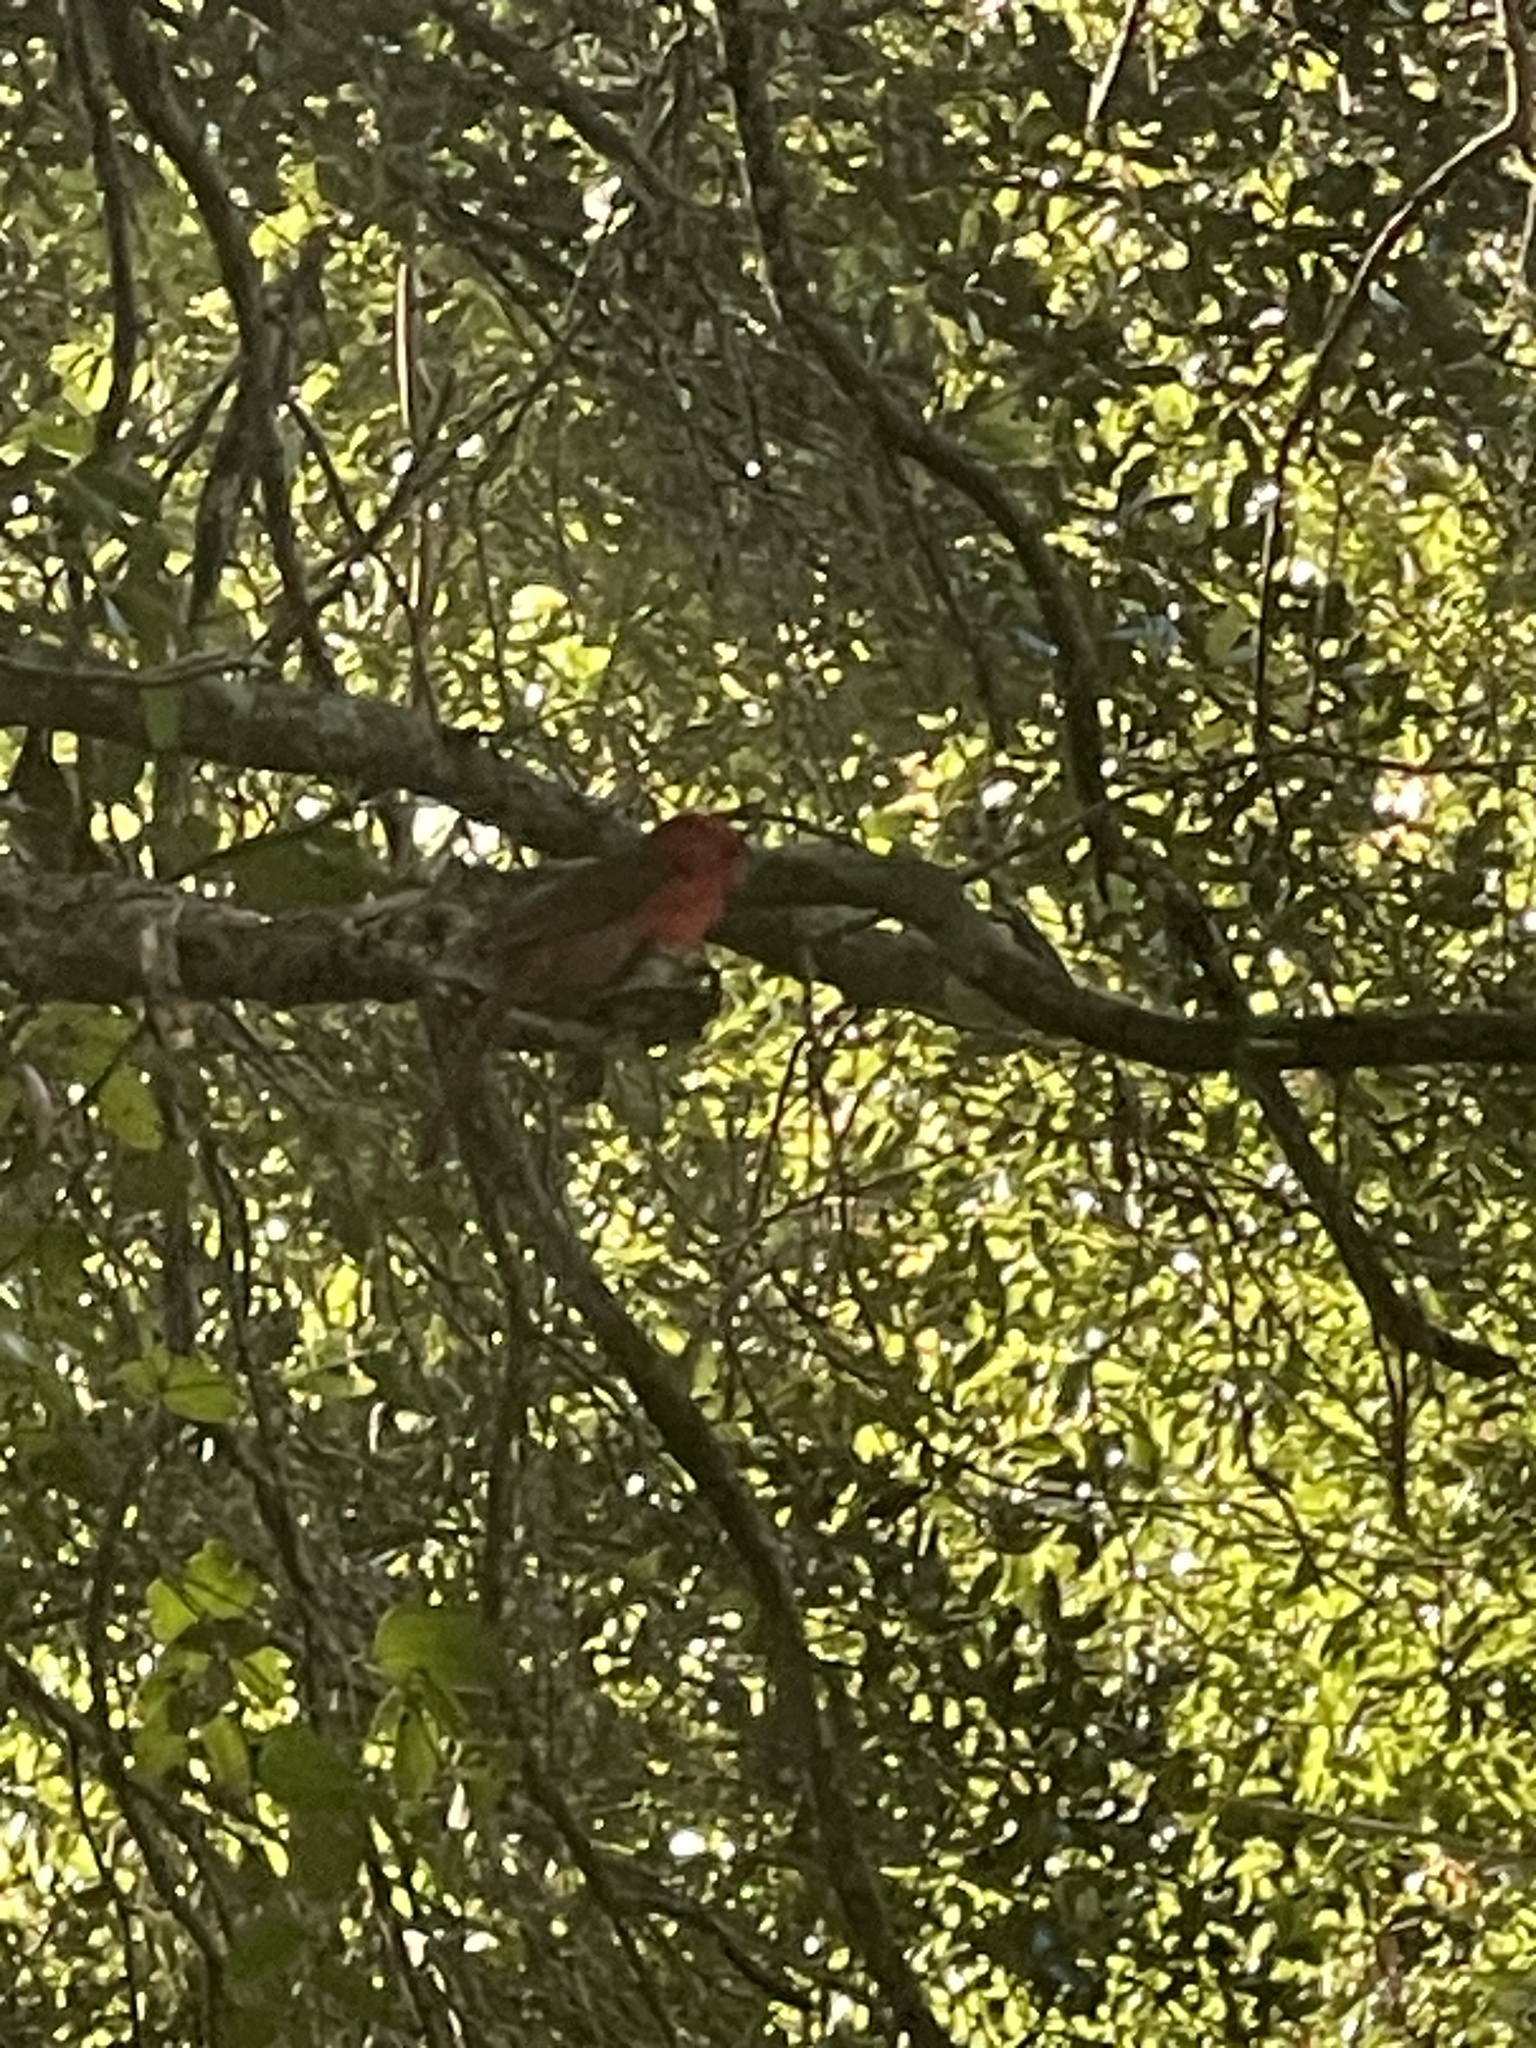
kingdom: Animalia
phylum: Chordata
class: Aves
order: Passeriformes
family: Cardinalidae
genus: Cardinalis
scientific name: Cardinalis cardinalis
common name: Northern cardinal
